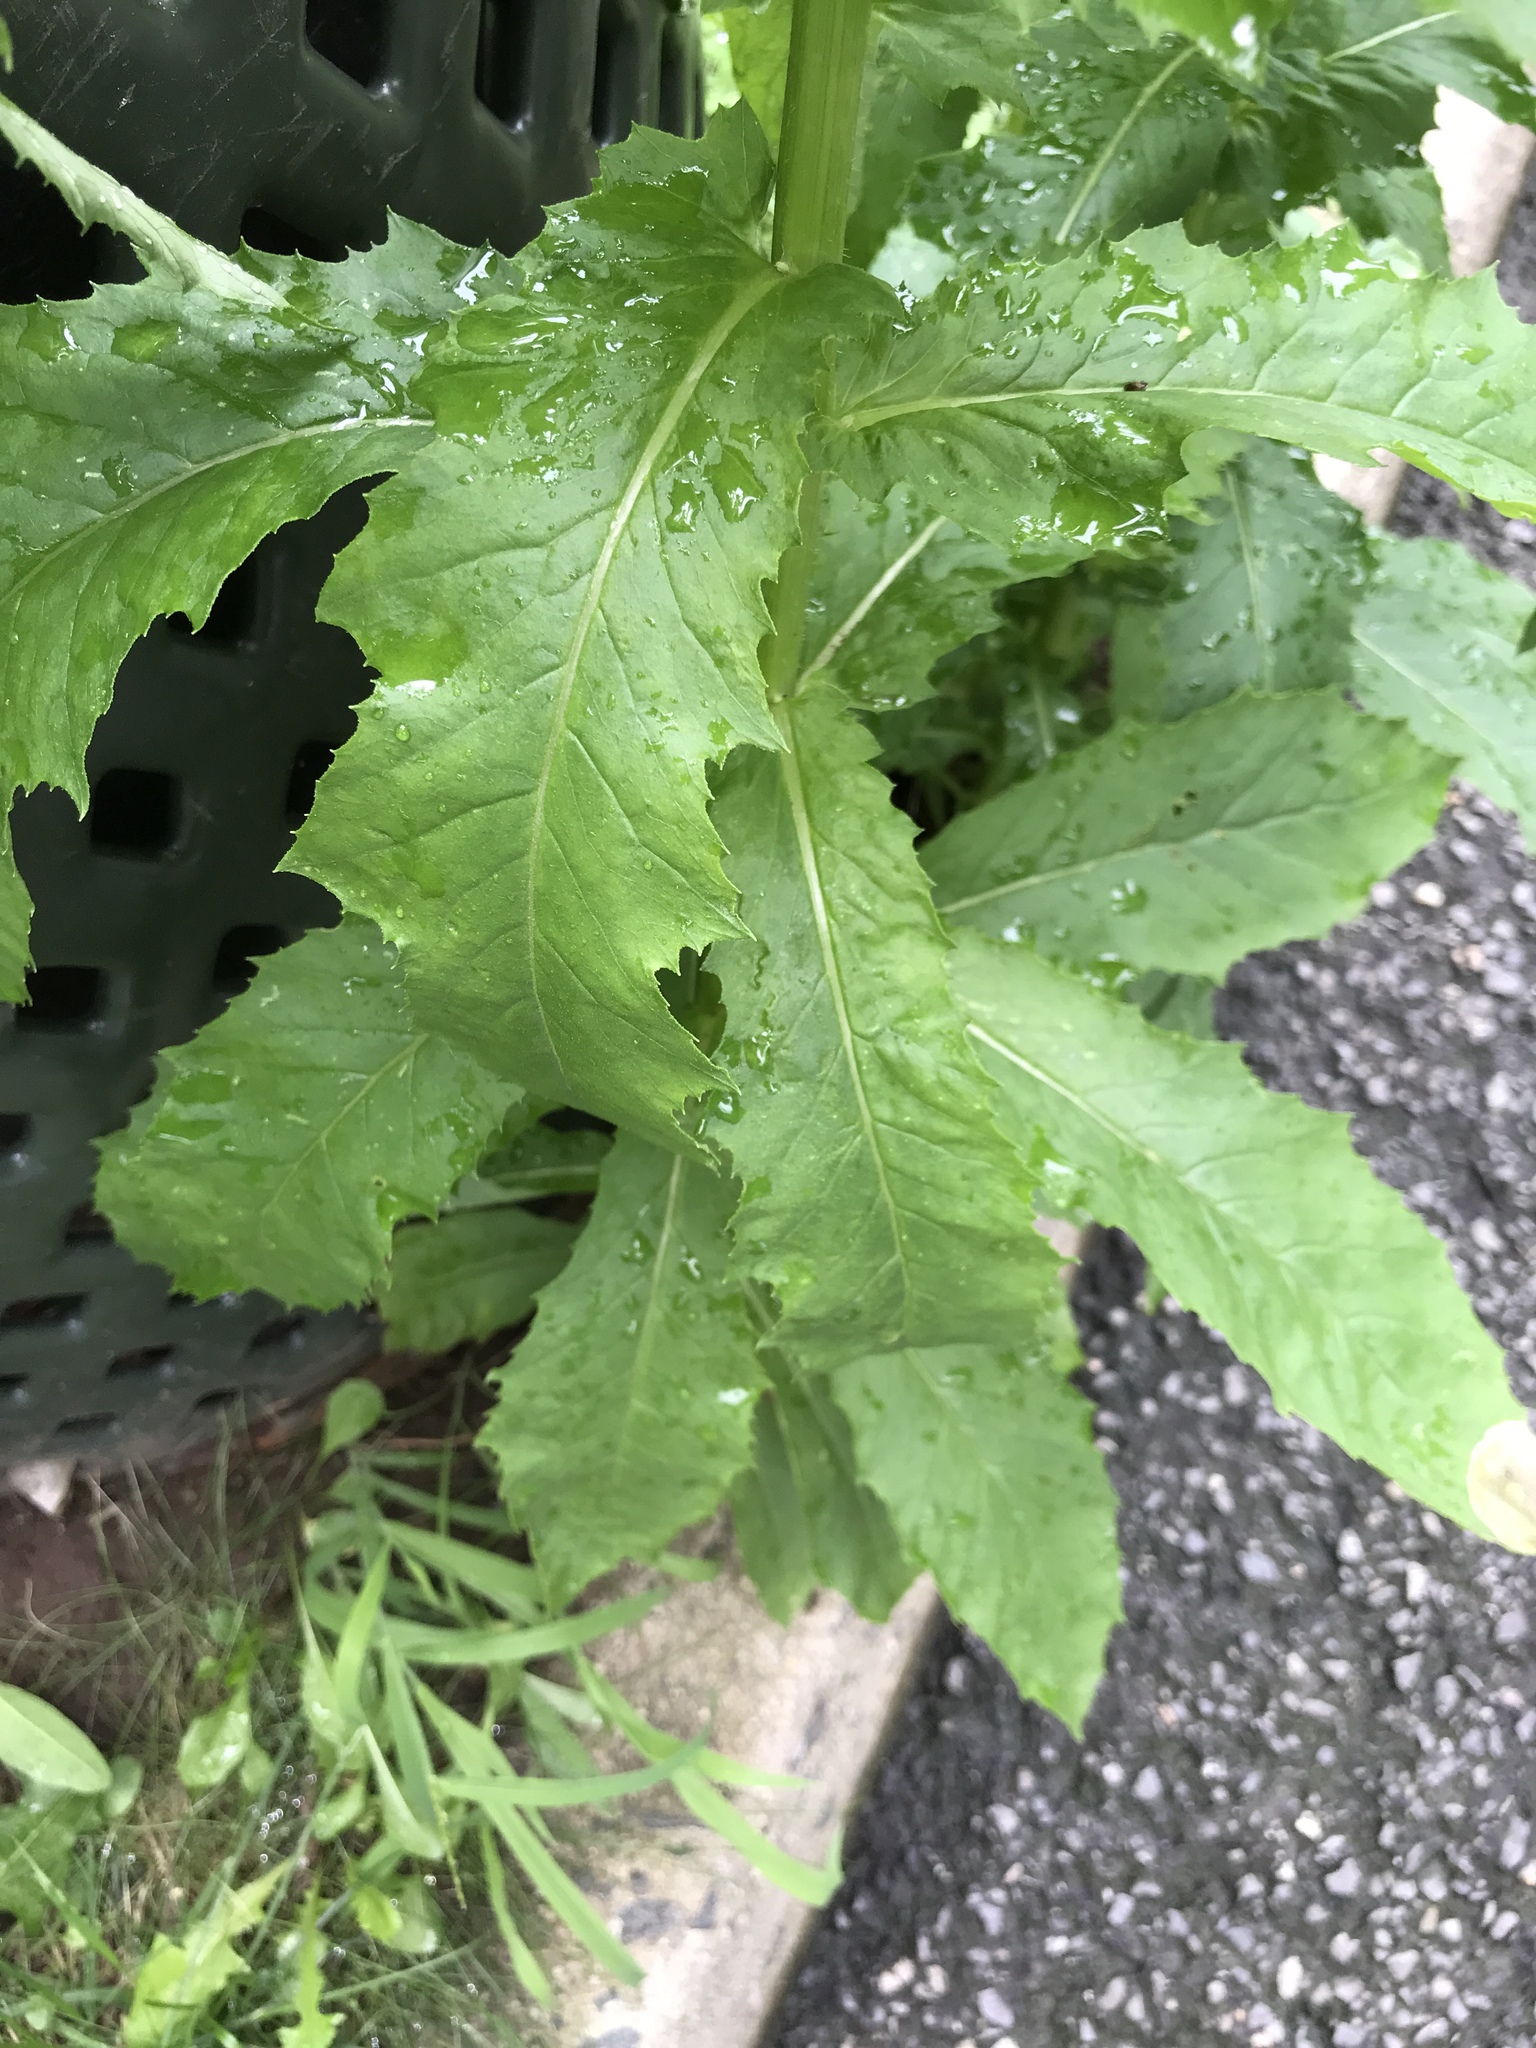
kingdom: Plantae
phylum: Tracheophyta
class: Magnoliopsida
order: Asterales
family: Asteraceae
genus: Erechtites
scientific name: Erechtites hieraciifolius
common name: American burnweed
